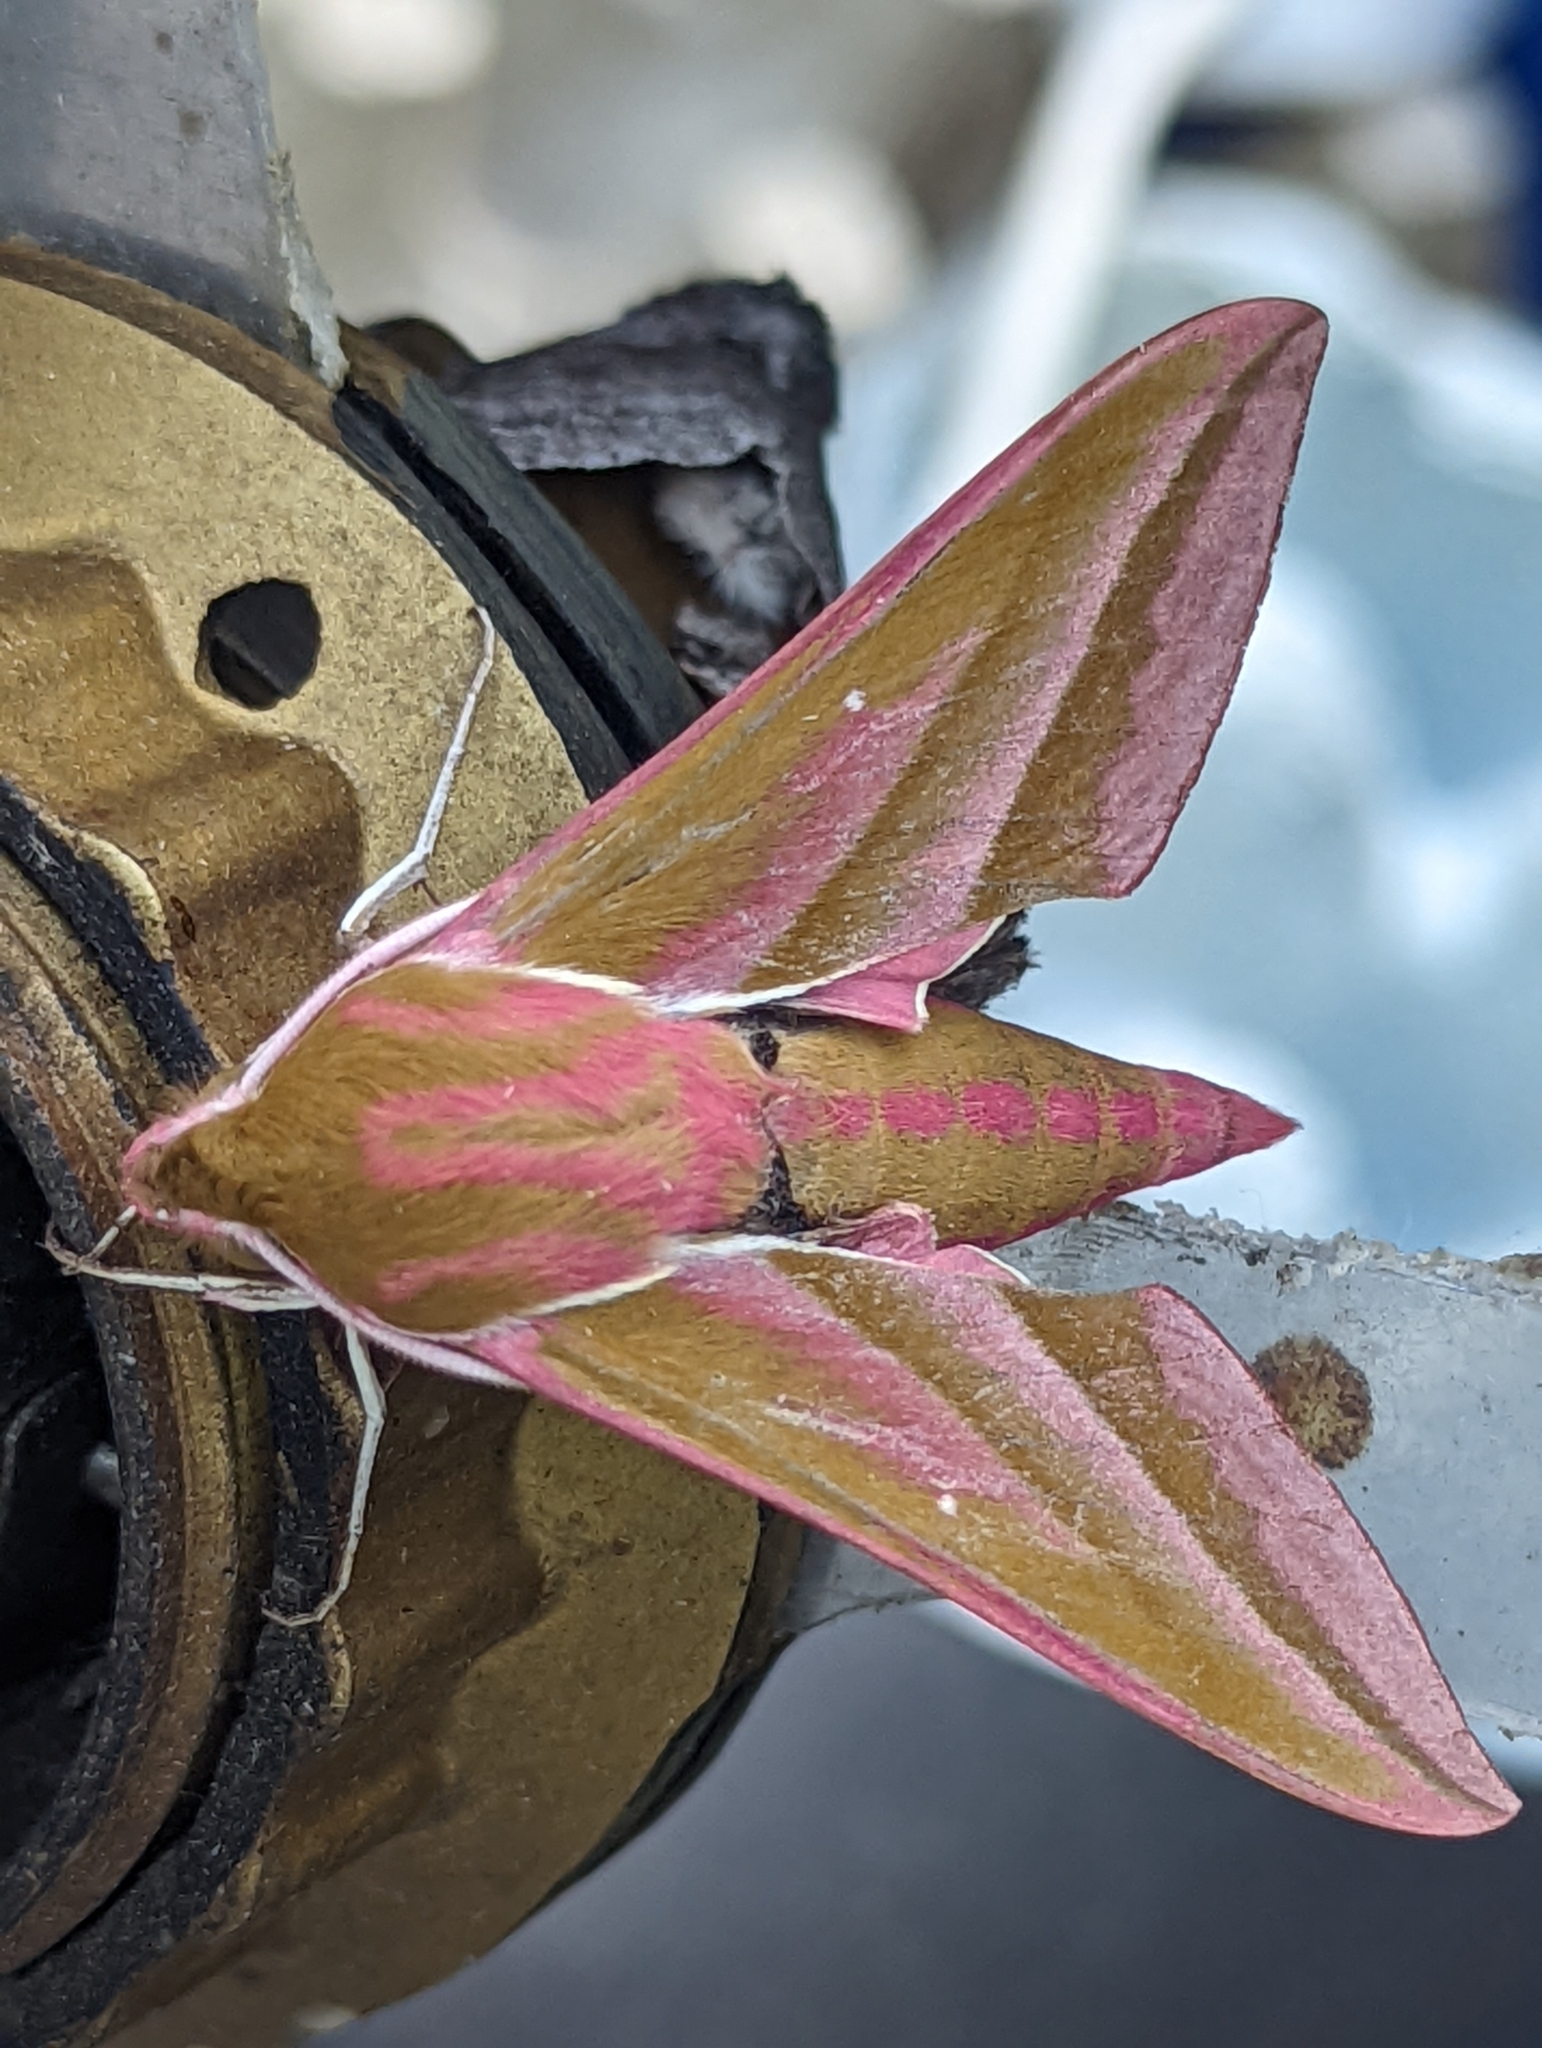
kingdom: Animalia
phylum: Arthropoda
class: Insecta
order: Lepidoptera
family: Sphingidae
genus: Deilephila
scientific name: Deilephila elpenor
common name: Elephant hawk-moth
